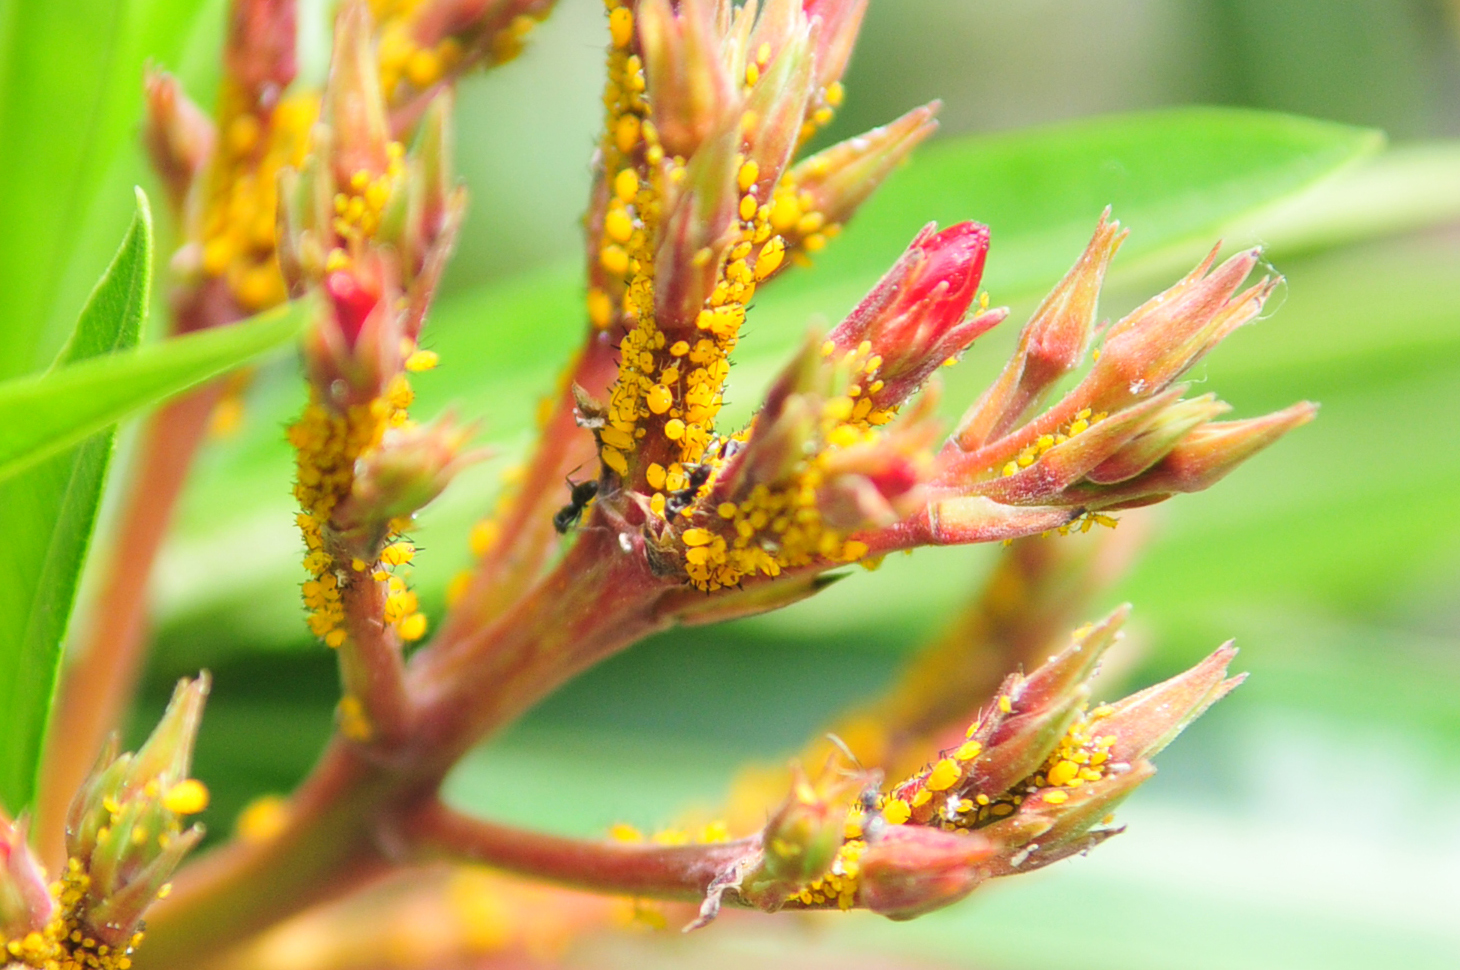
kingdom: Animalia
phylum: Arthropoda
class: Insecta
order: Hemiptera
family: Aphididae
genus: Aphis
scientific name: Aphis nerii
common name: Oleander aphid
